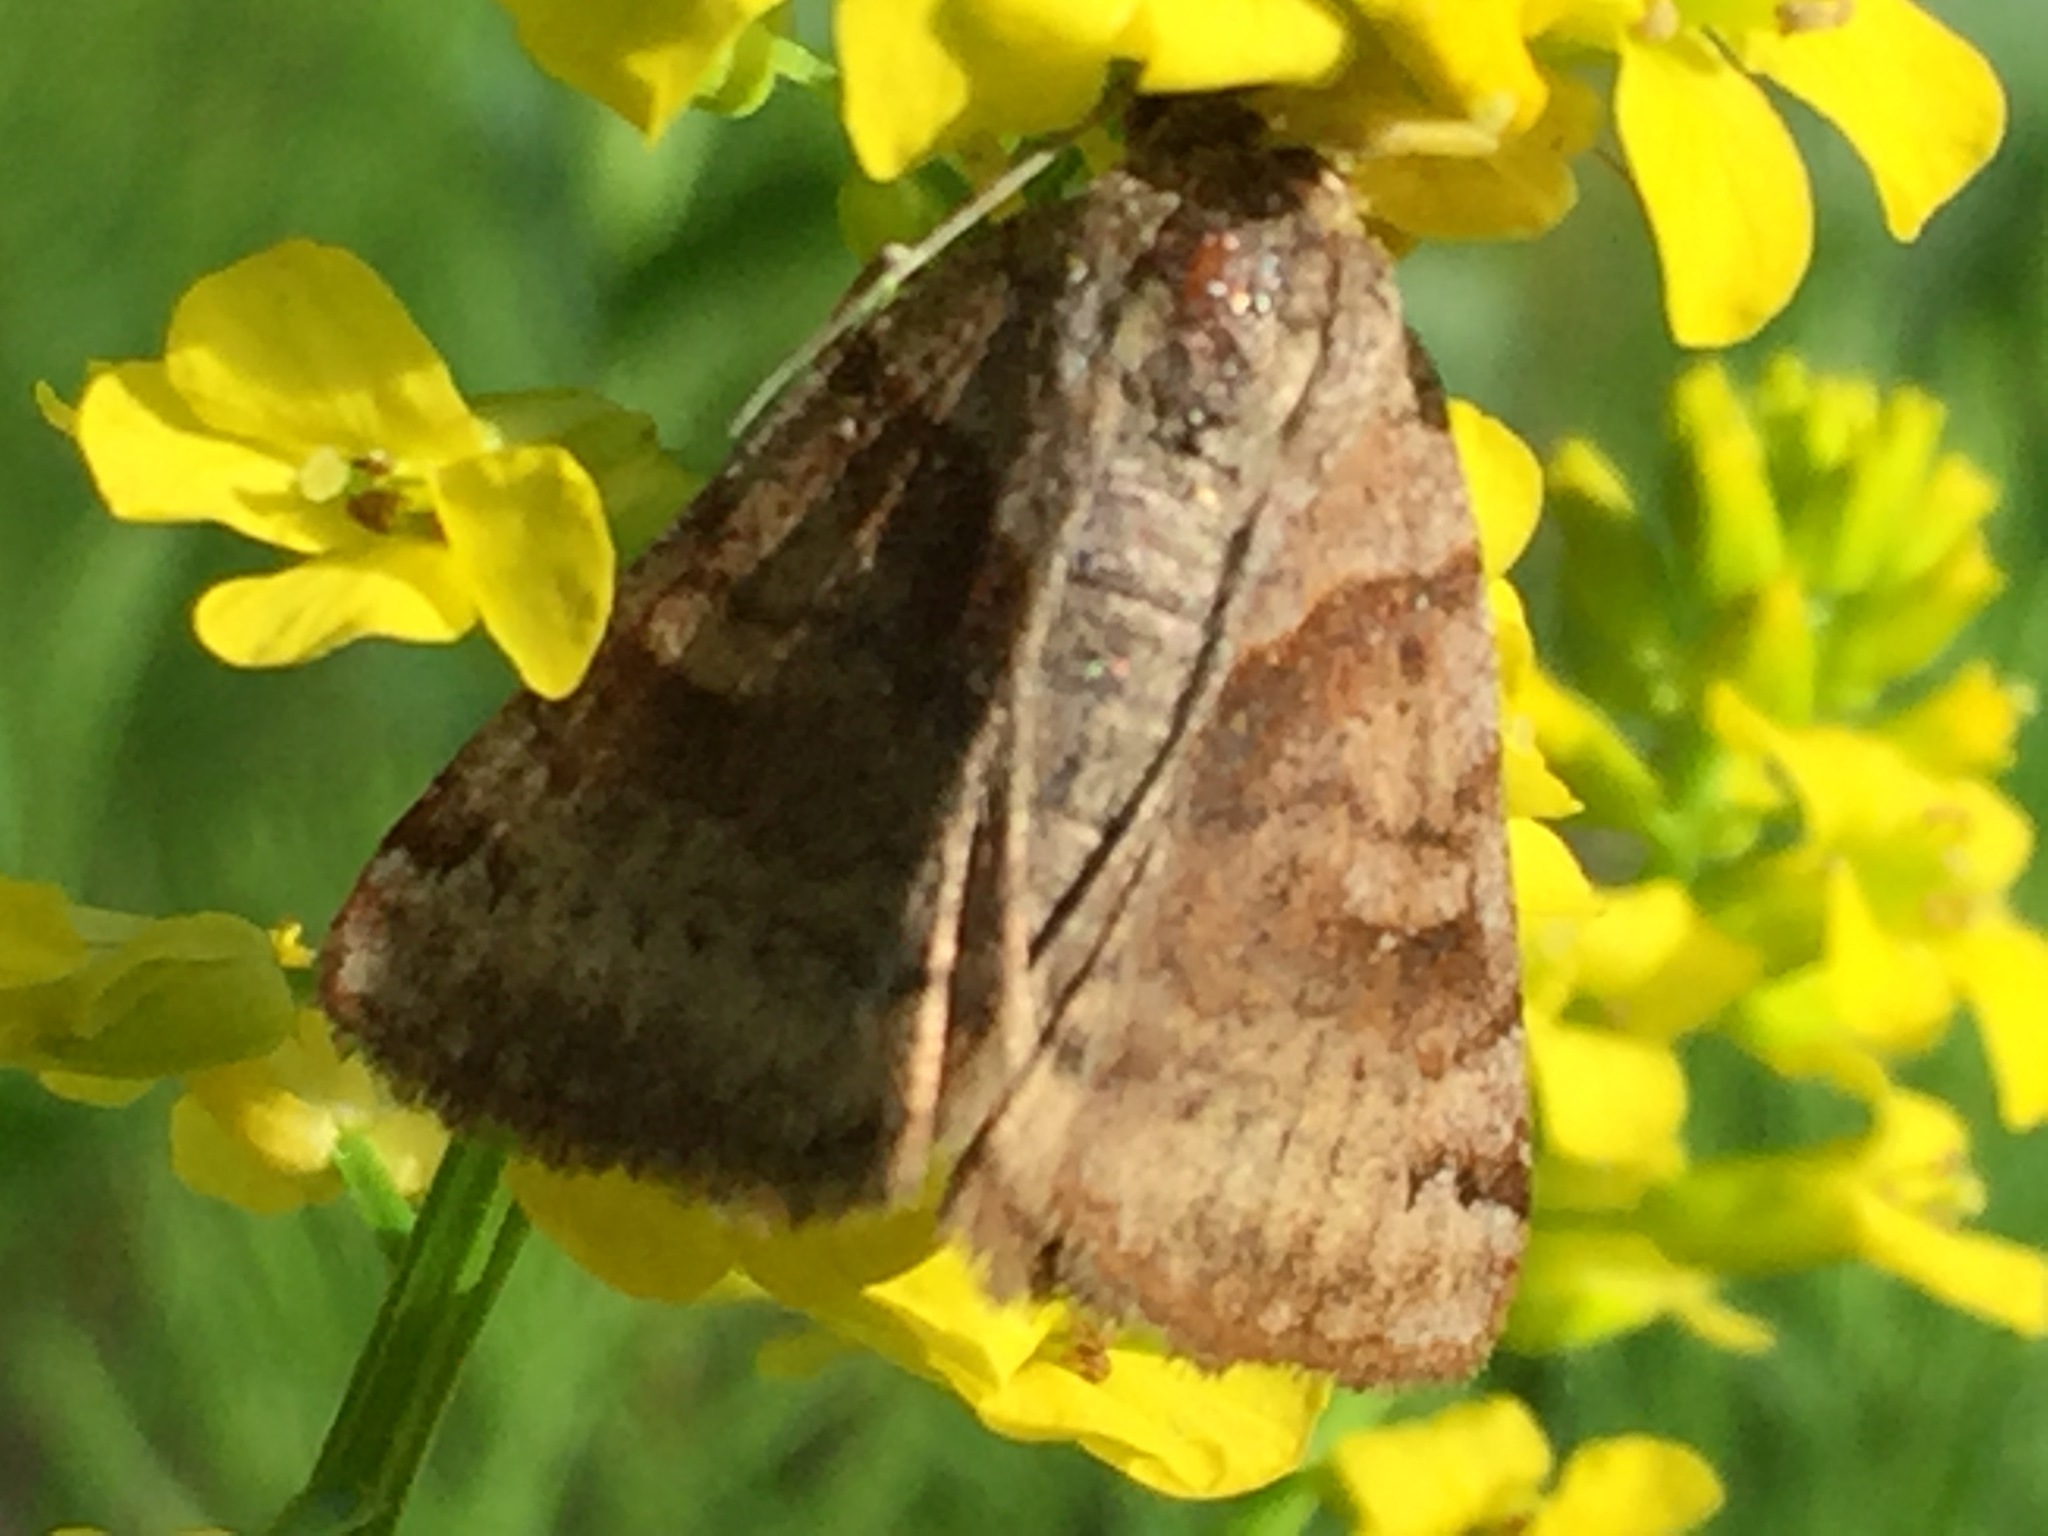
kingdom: Animalia
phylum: Arthropoda
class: Insecta
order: Lepidoptera
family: Erebidae
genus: Caenurgina
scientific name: Caenurgina crassiuscula
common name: Double-barred
